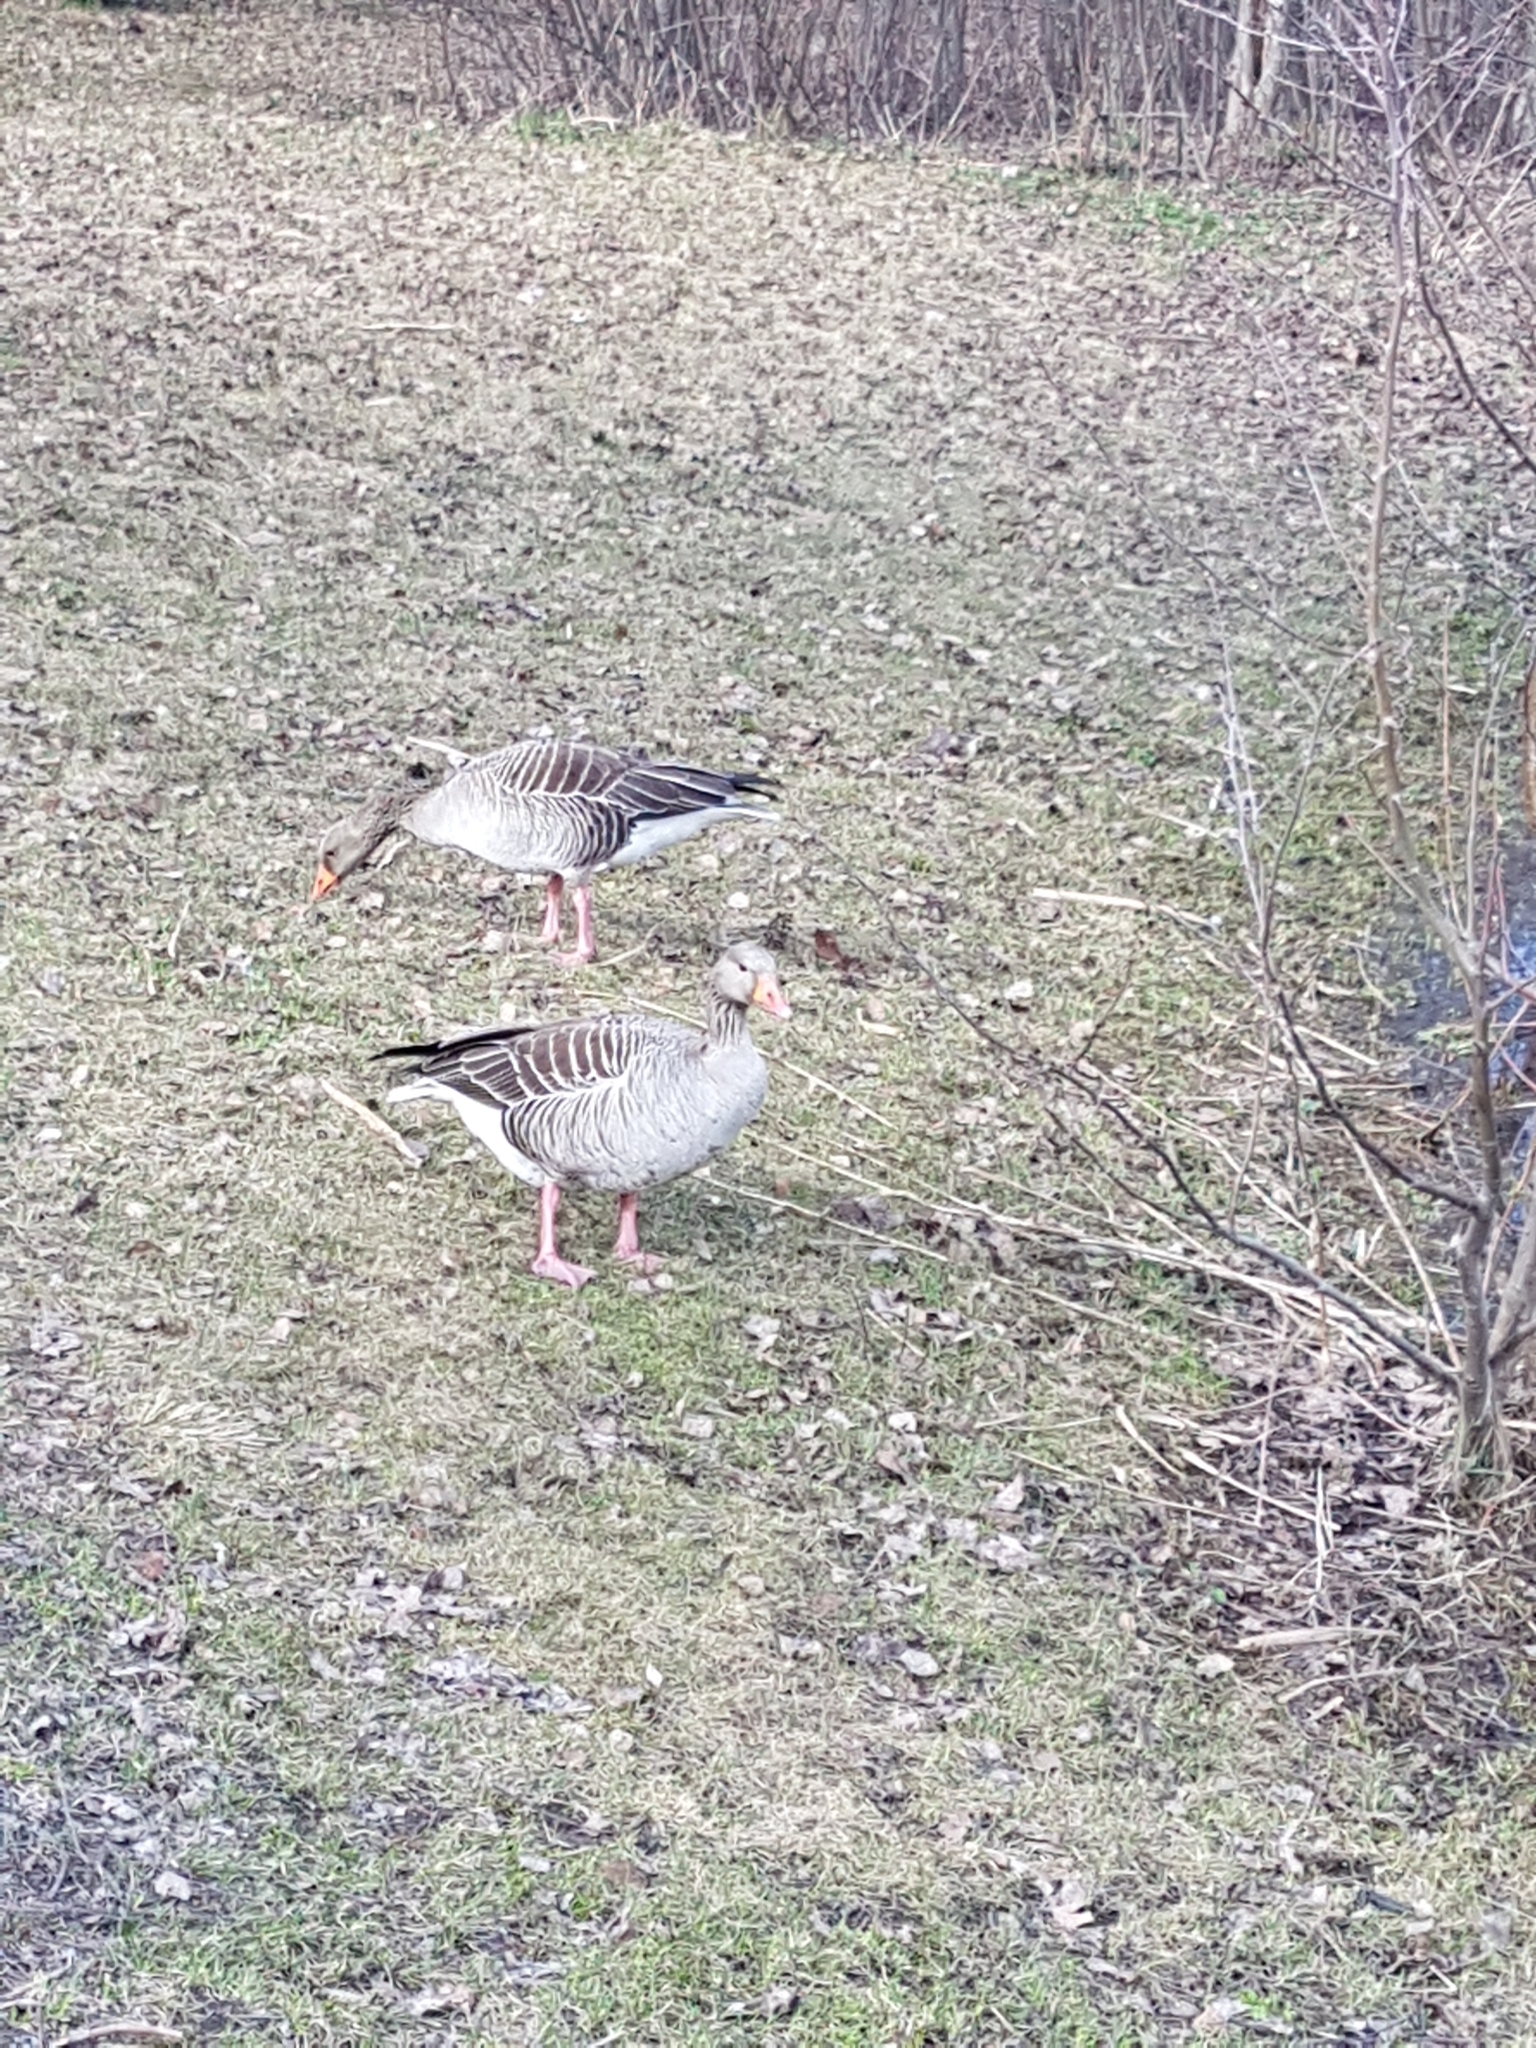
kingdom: Animalia
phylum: Chordata
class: Aves
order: Anseriformes
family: Anatidae
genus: Anser
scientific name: Anser anser
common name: Greylag goose
